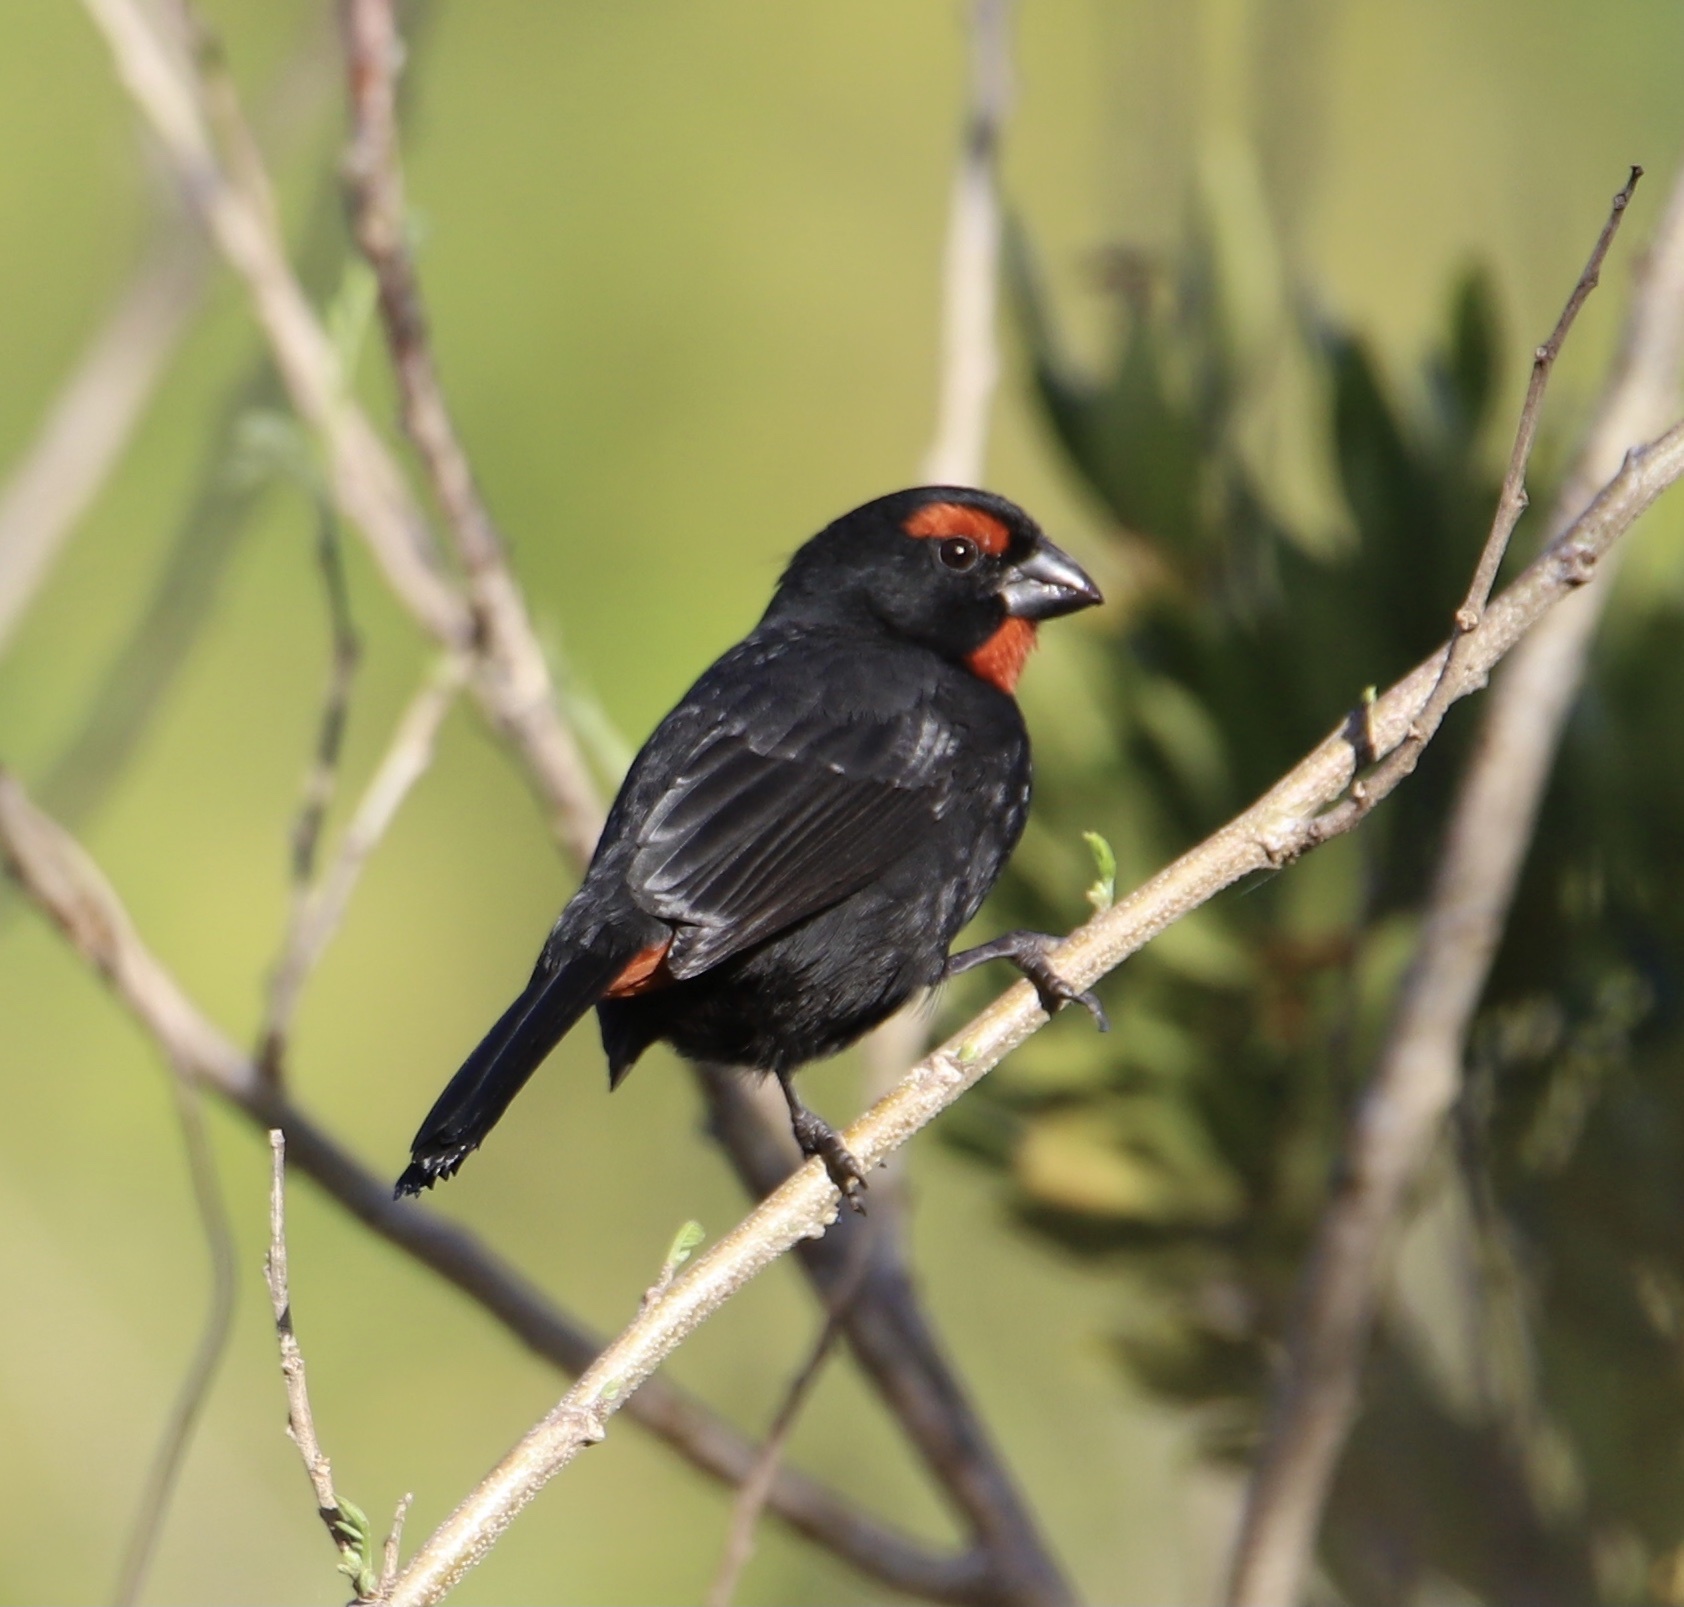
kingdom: Animalia
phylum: Chordata
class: Aves
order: Passeriformes
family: Thraupidae
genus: Melopyrrha
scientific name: Melopyrrha violacea
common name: Greater antillean bullfinch
